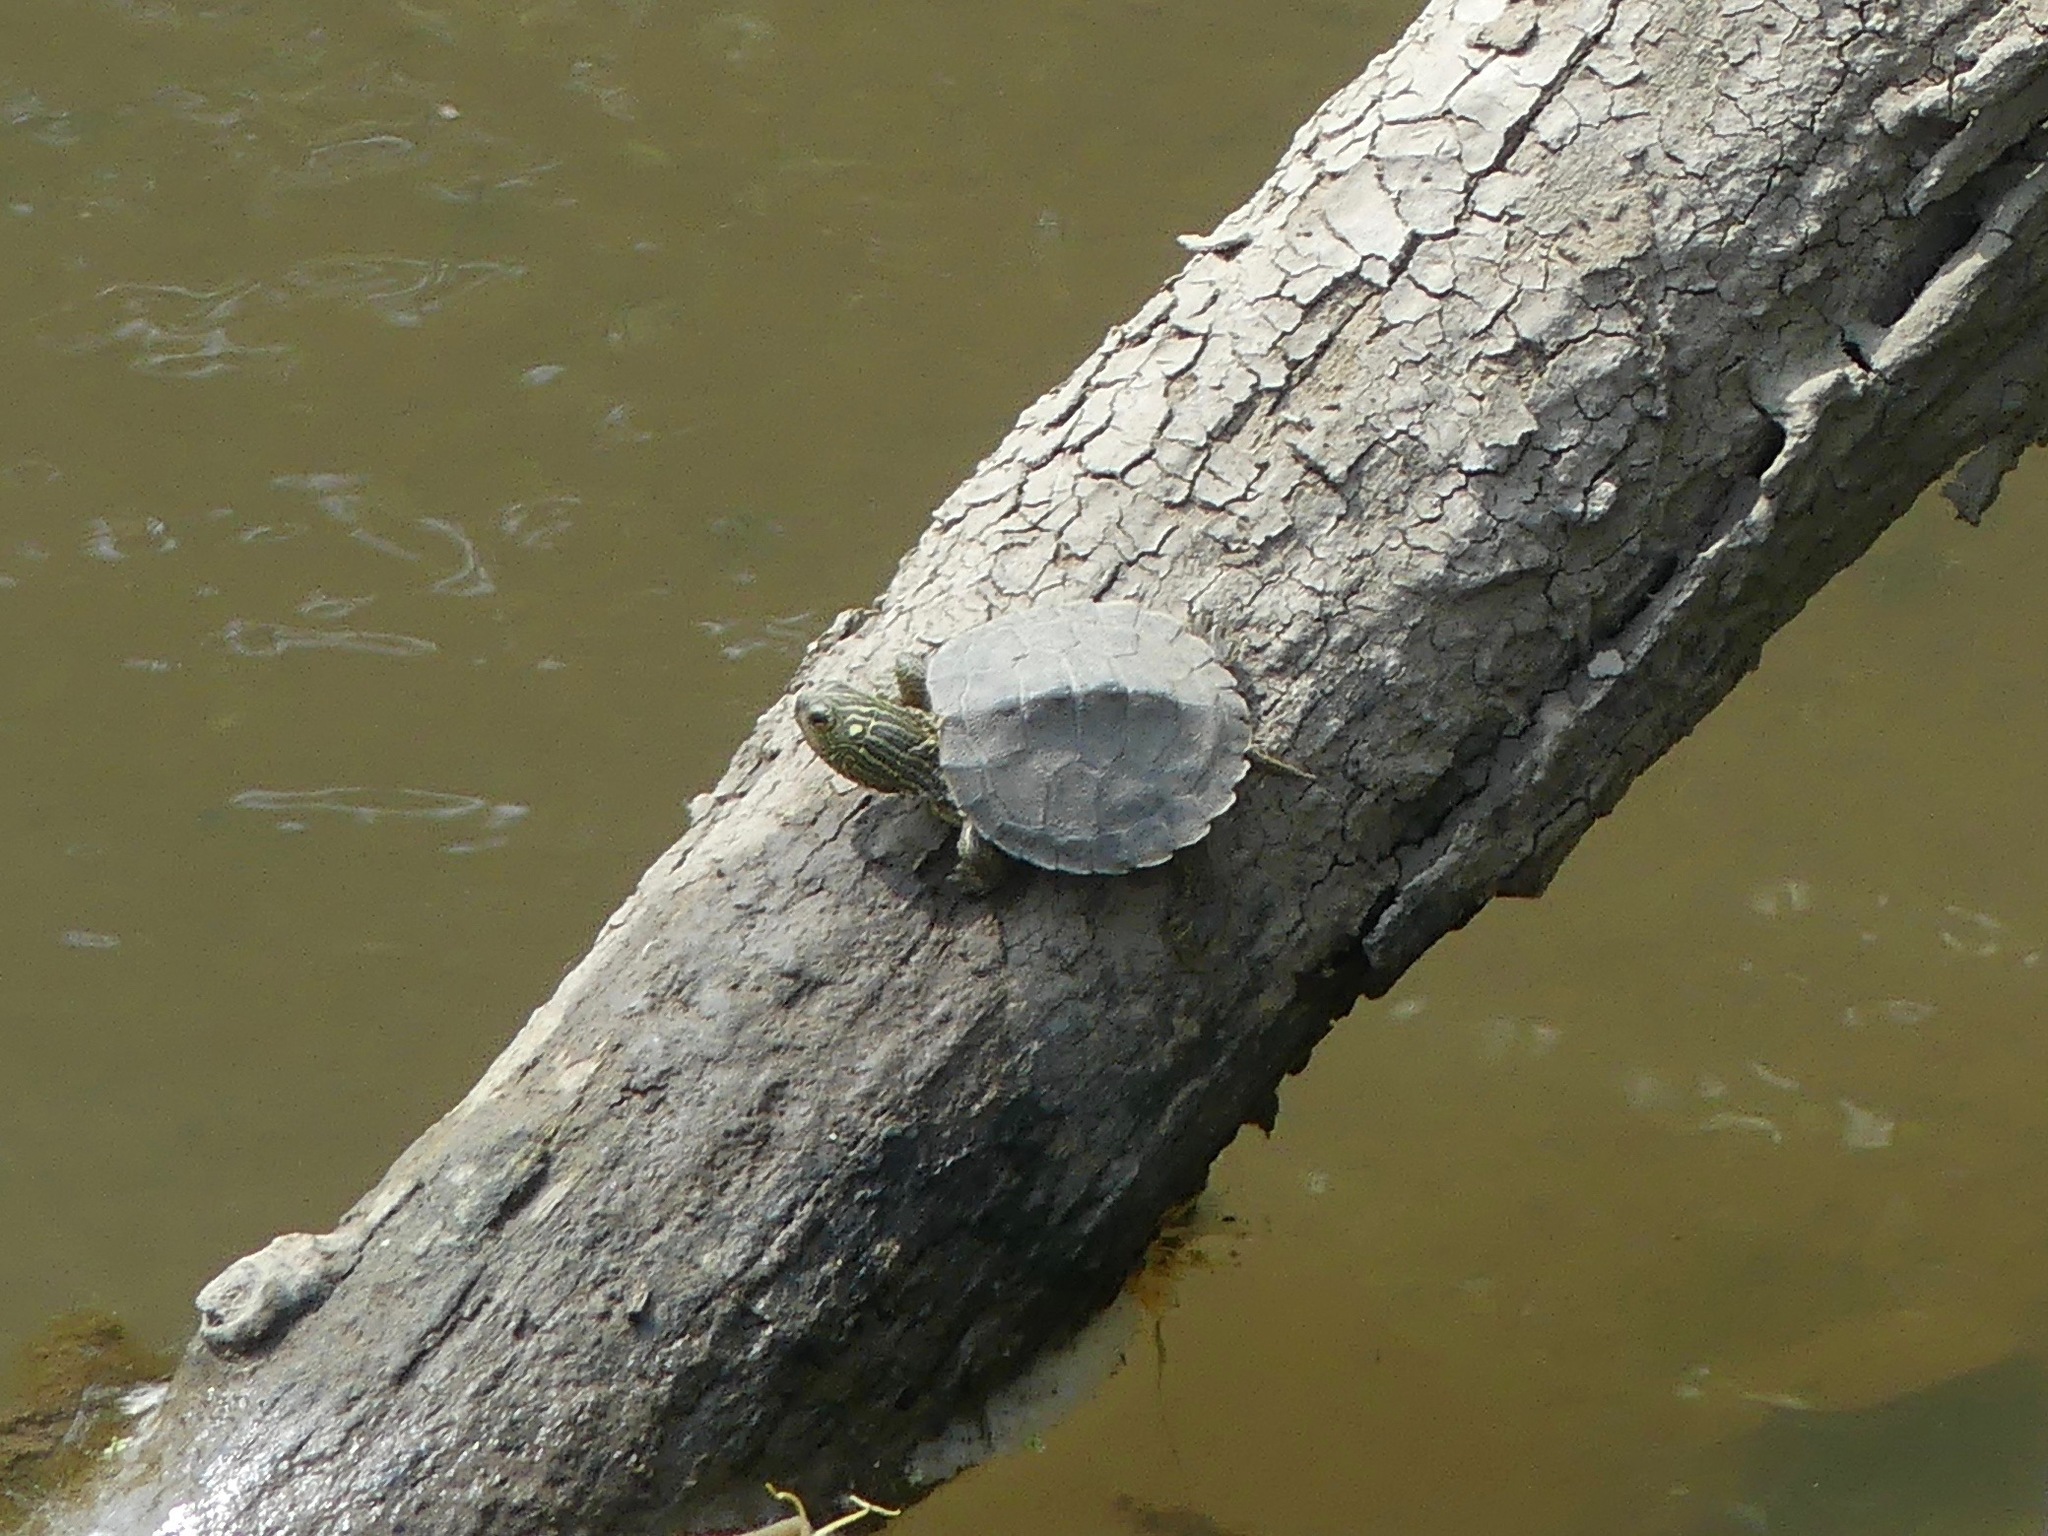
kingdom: Animalia
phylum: Chordata
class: Testudines
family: Emydidae
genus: Graptemys
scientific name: Graptemys geographica
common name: Common map turtle
